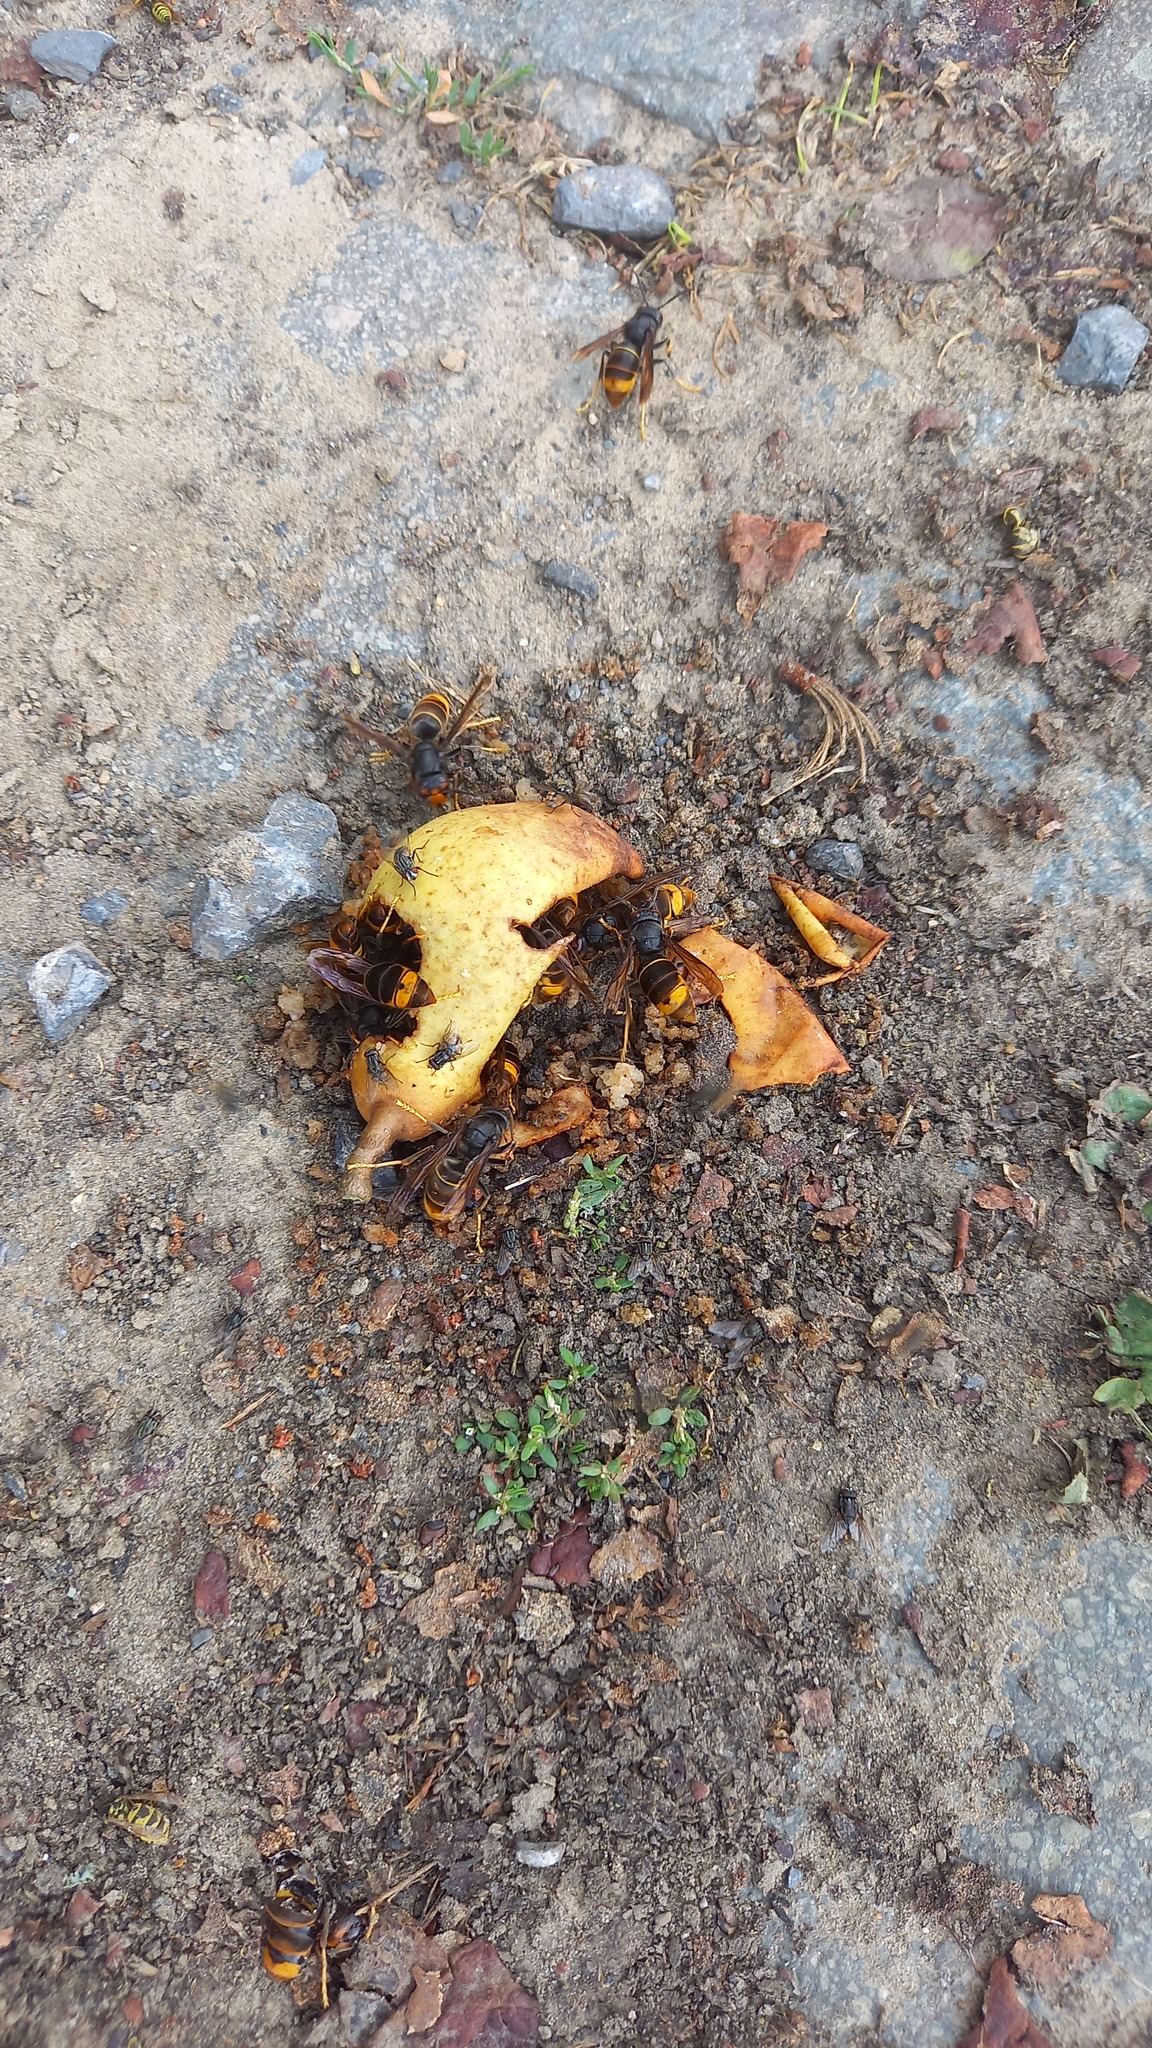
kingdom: Animalia
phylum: Arthropoda
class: Insecta
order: Hymenoptera
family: Vespidae
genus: Vespa
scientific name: Vespa velutina
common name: Asian hornet
